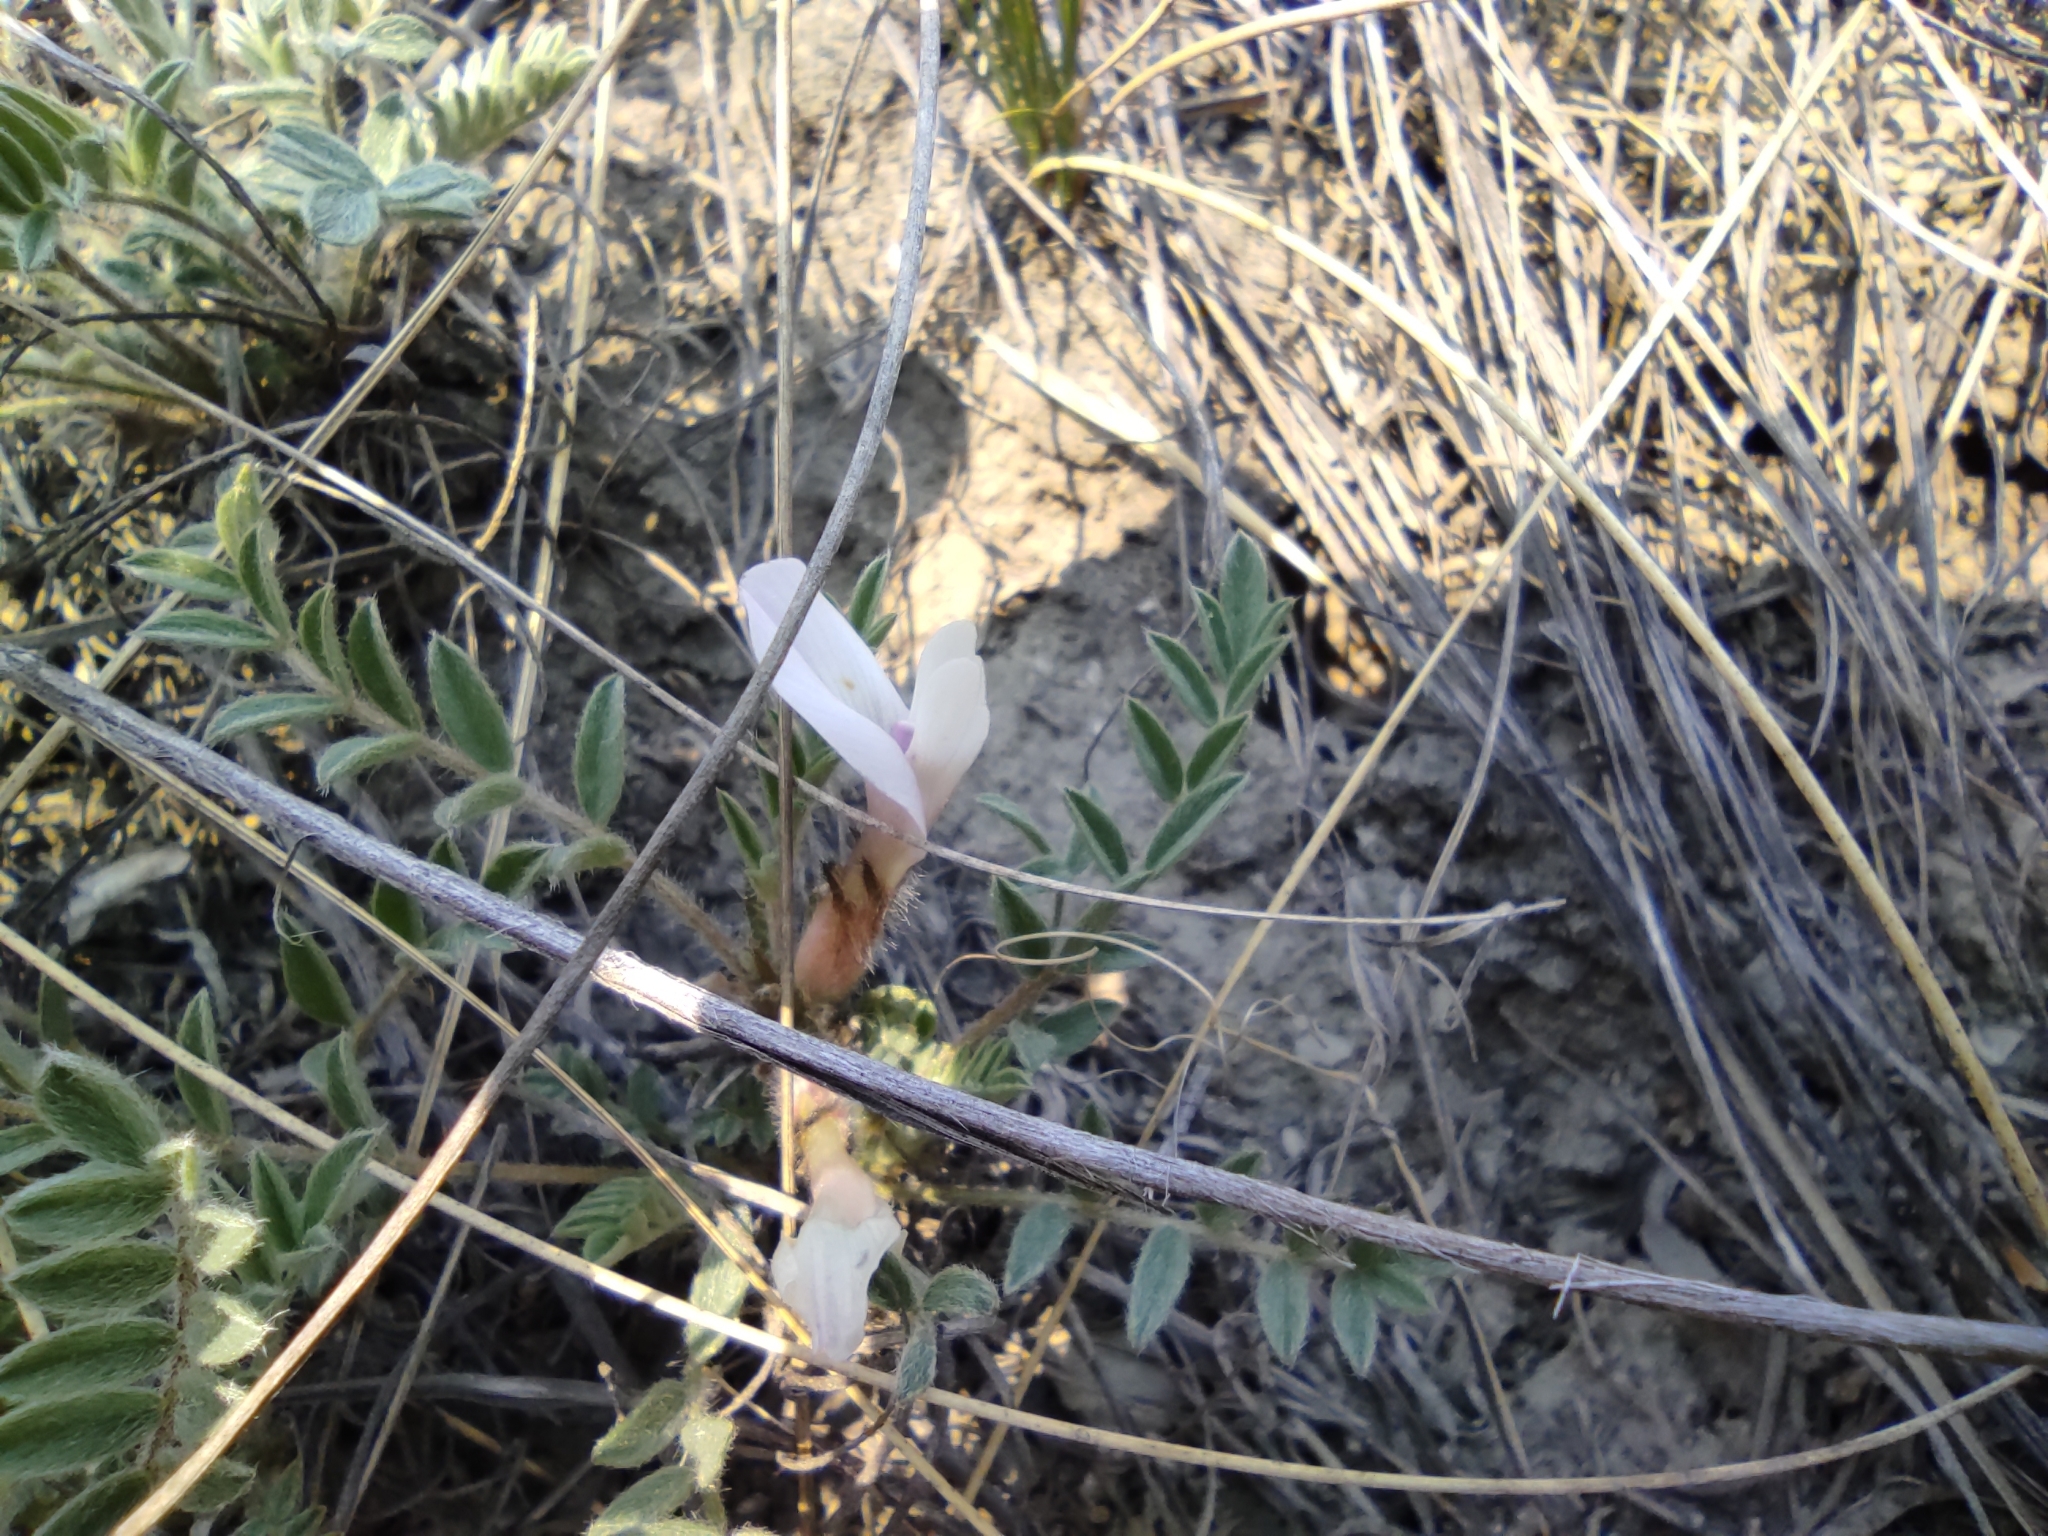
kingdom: Plantae
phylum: Tracheophyta
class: Magnoliopsida
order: Fabales
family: Fabaceae
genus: Astragalus
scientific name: Astragalus testiculatus
